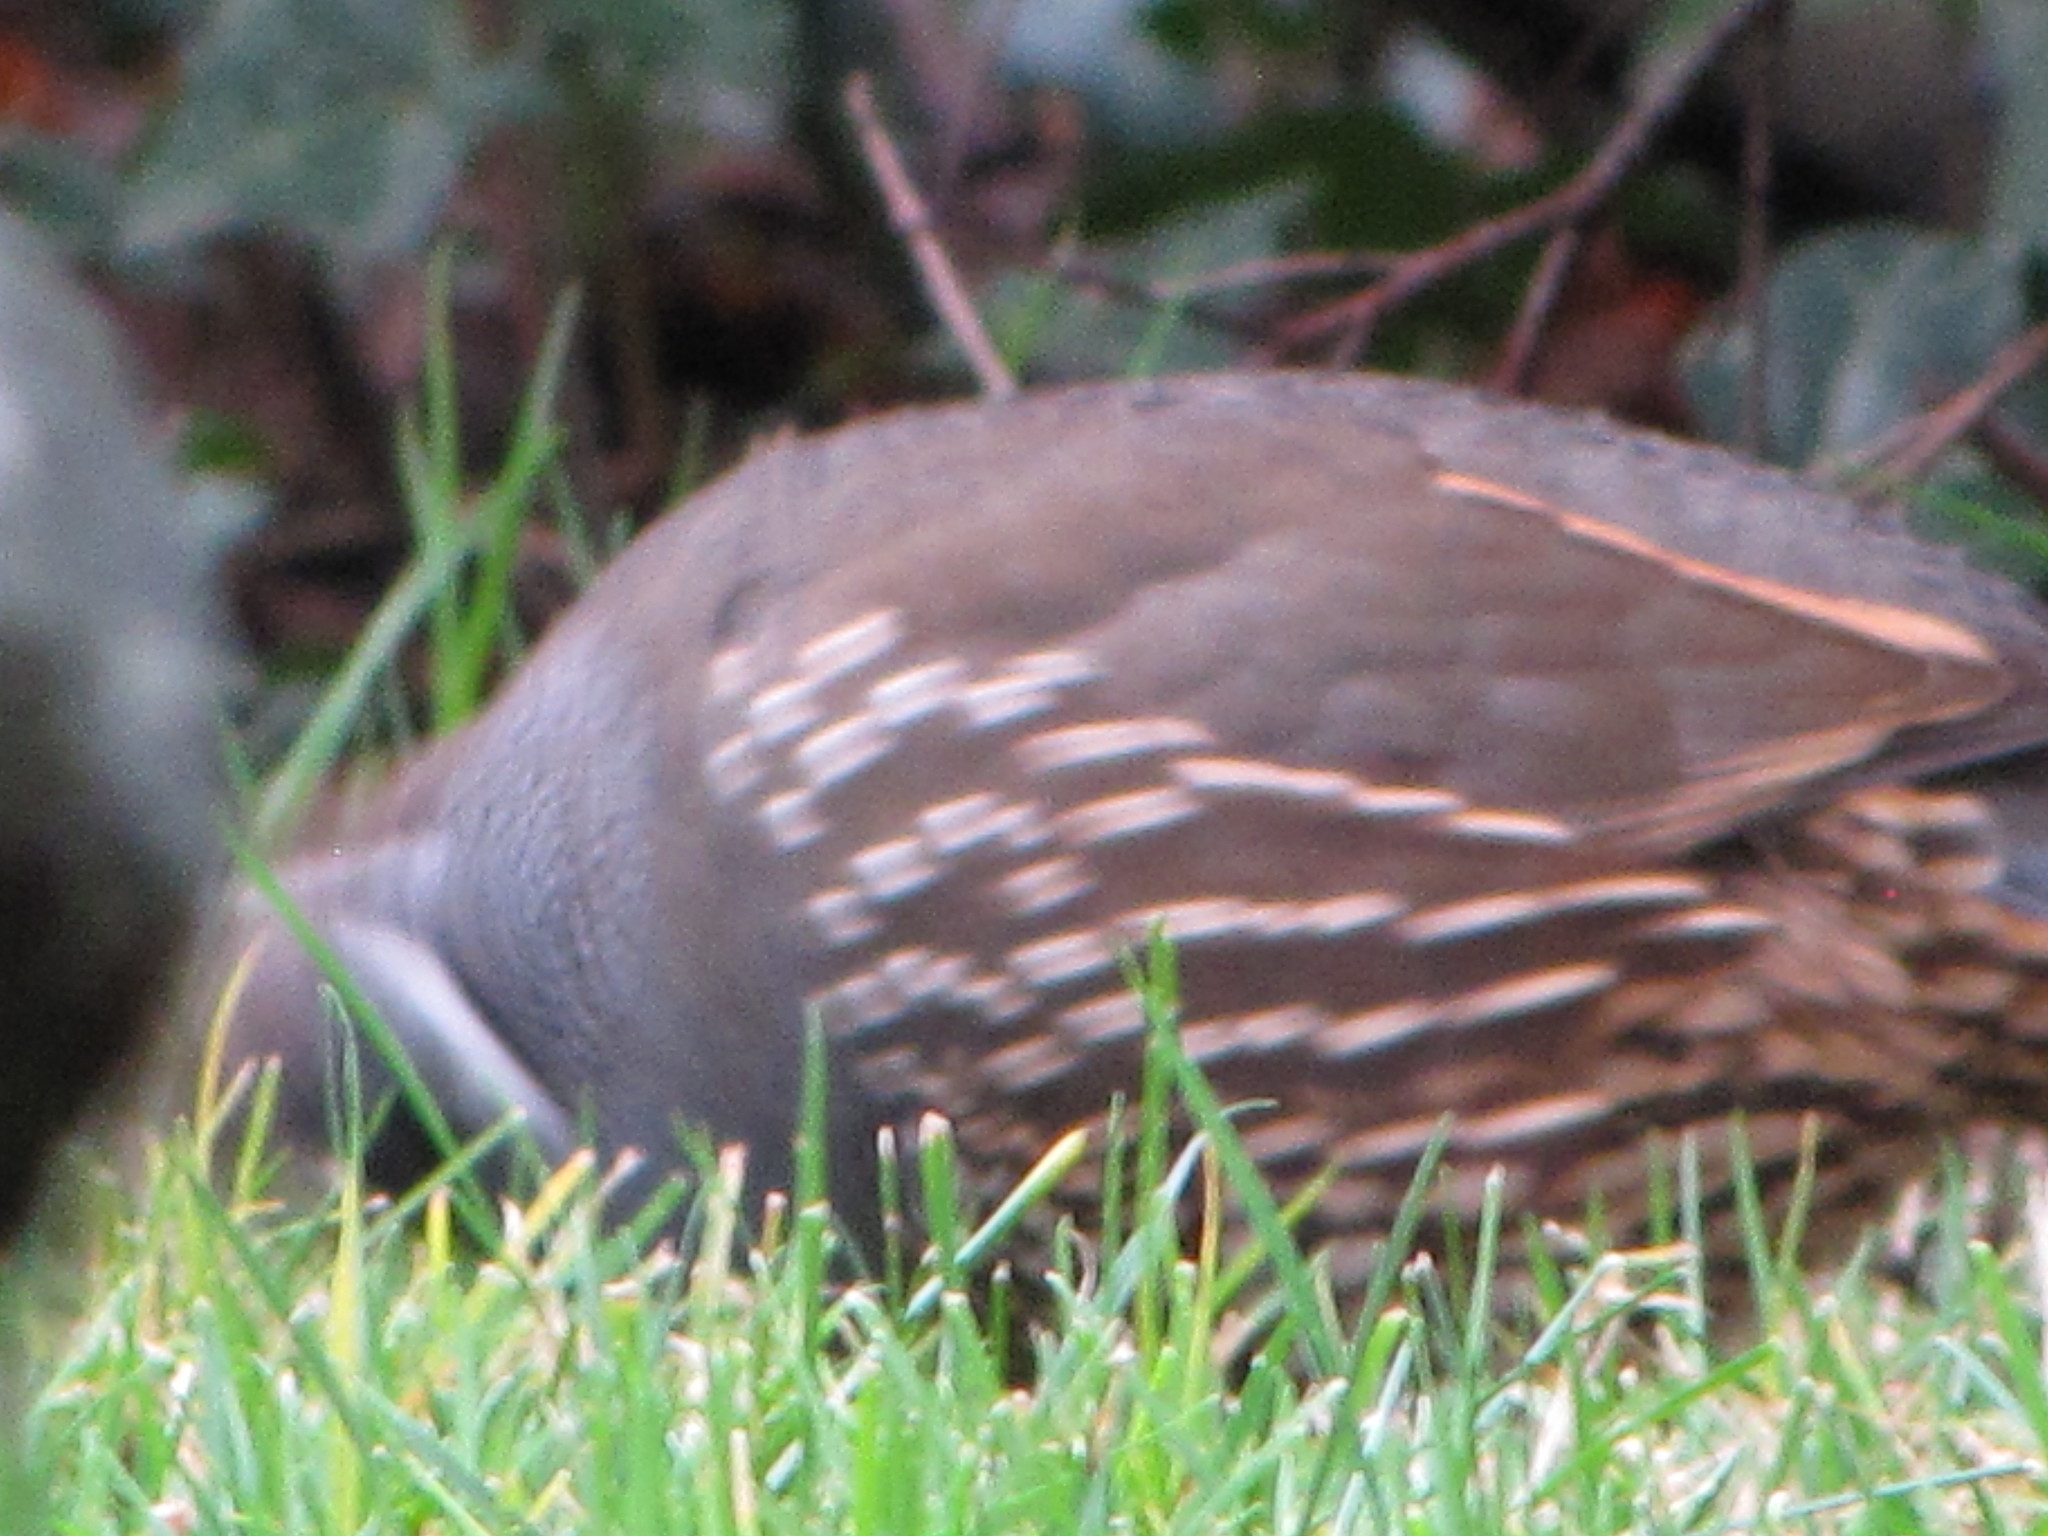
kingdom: Animalia
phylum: Chordata
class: Aves
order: Galliformes
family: Odontophoridae
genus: Callipepla
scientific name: Callipepla californica
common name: California quail
